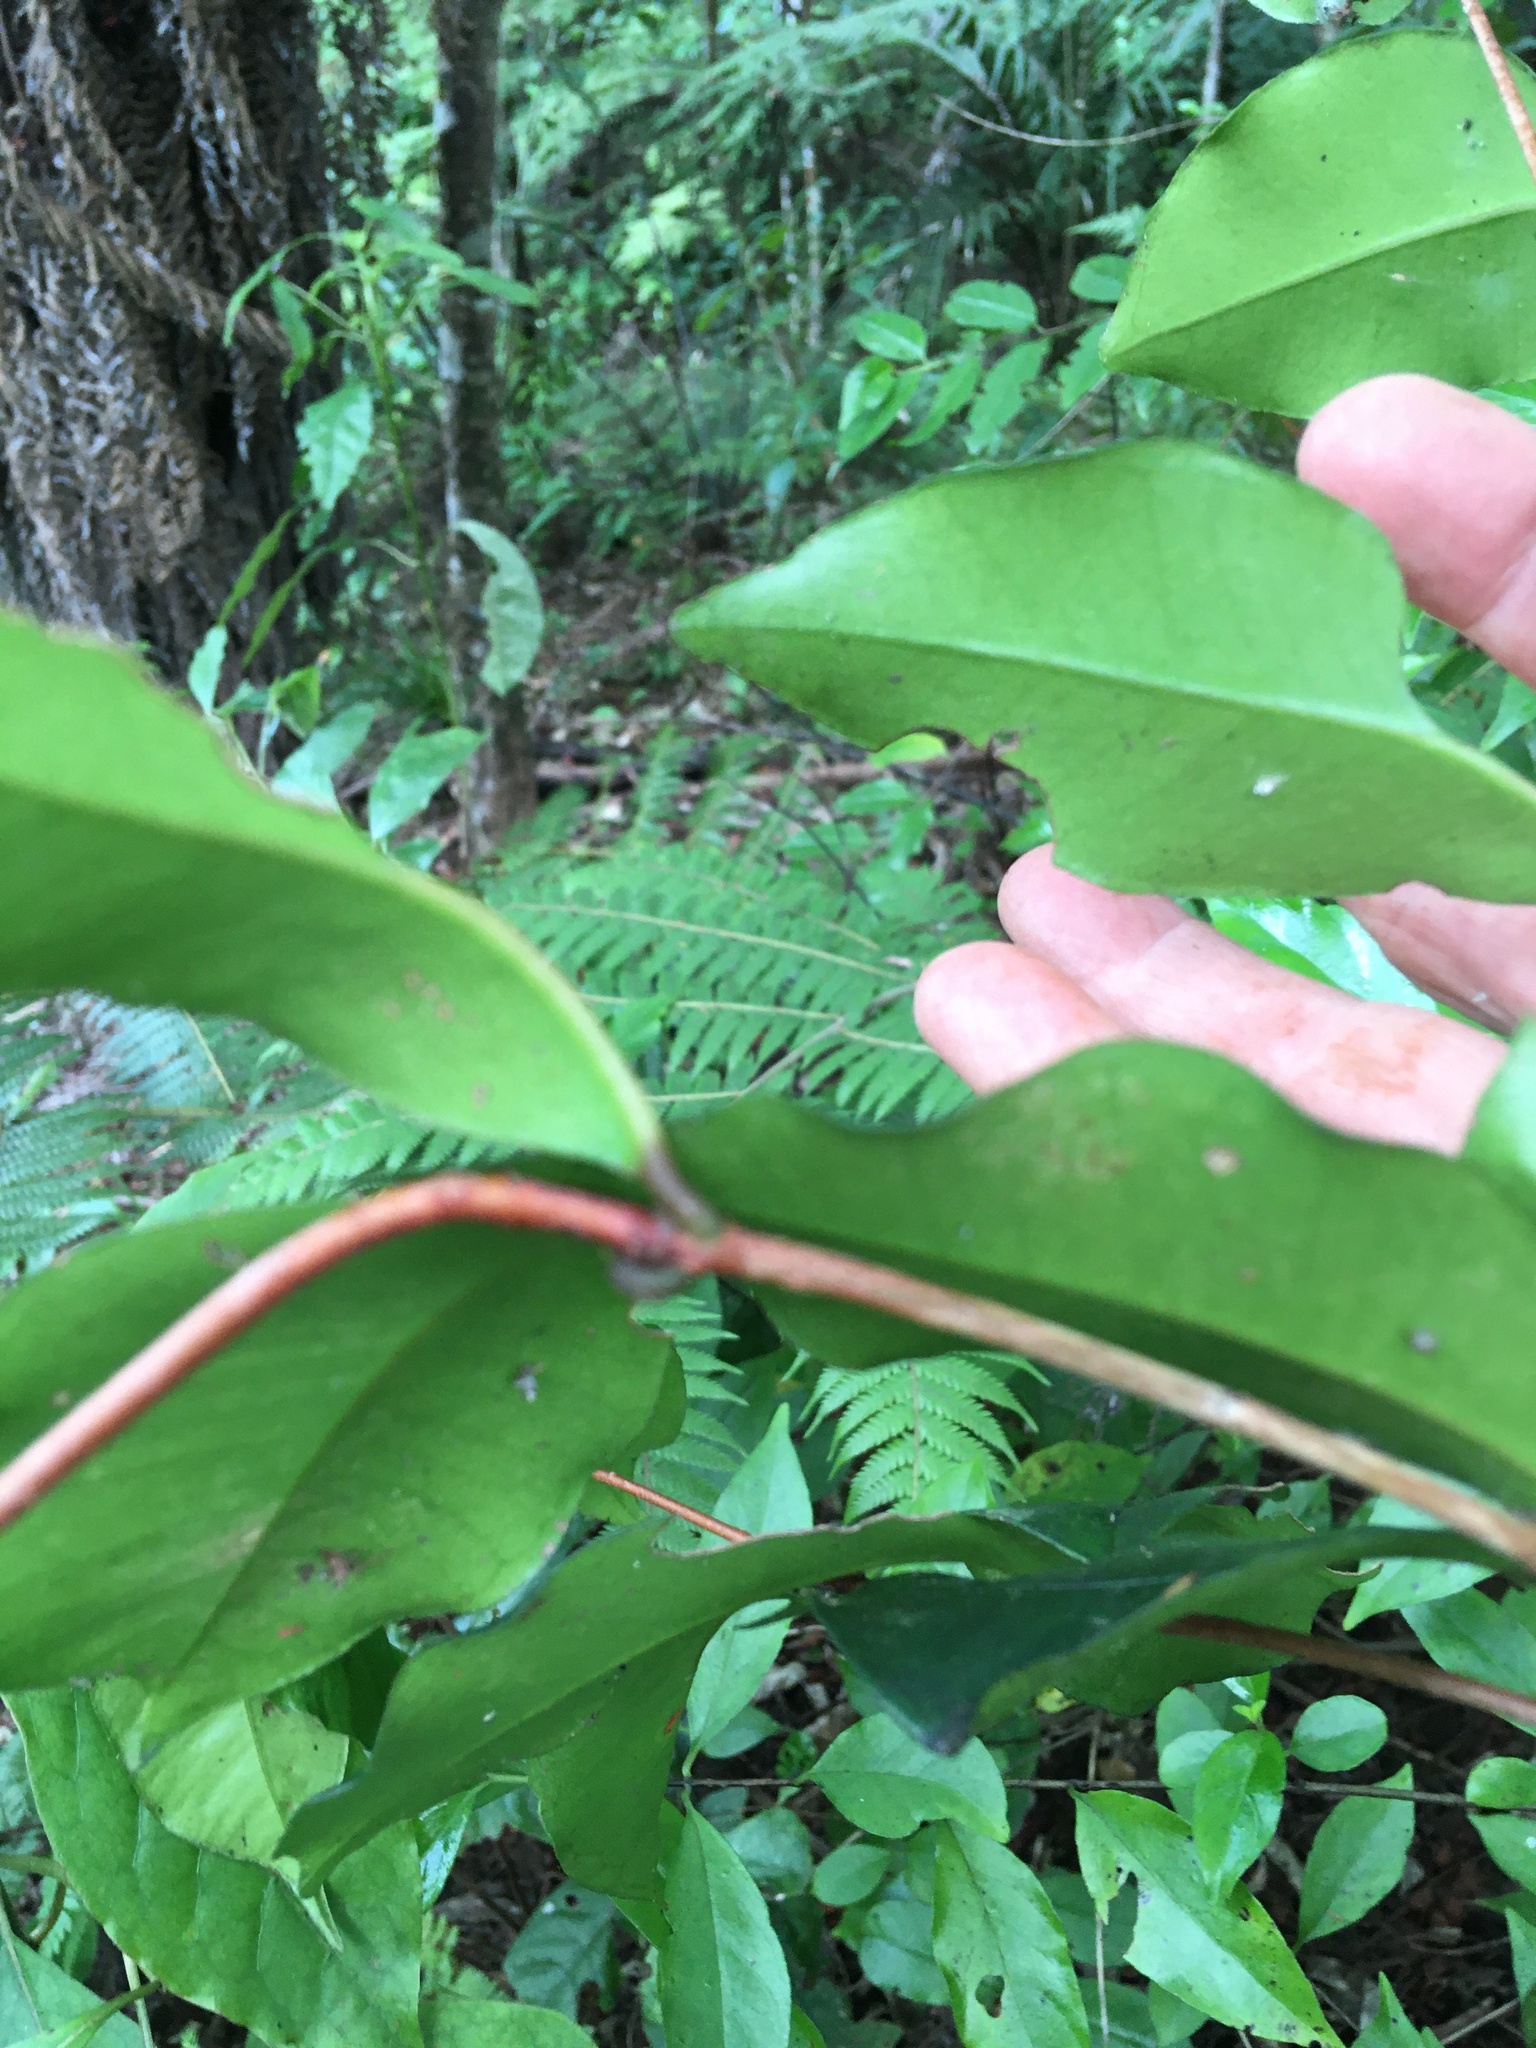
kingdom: Plantae
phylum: Tracheophyta
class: Magnoliopsida
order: Myrtales
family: Myrtaceae
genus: Syzygium
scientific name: Syzygium smithii
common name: Lilly-pilly
